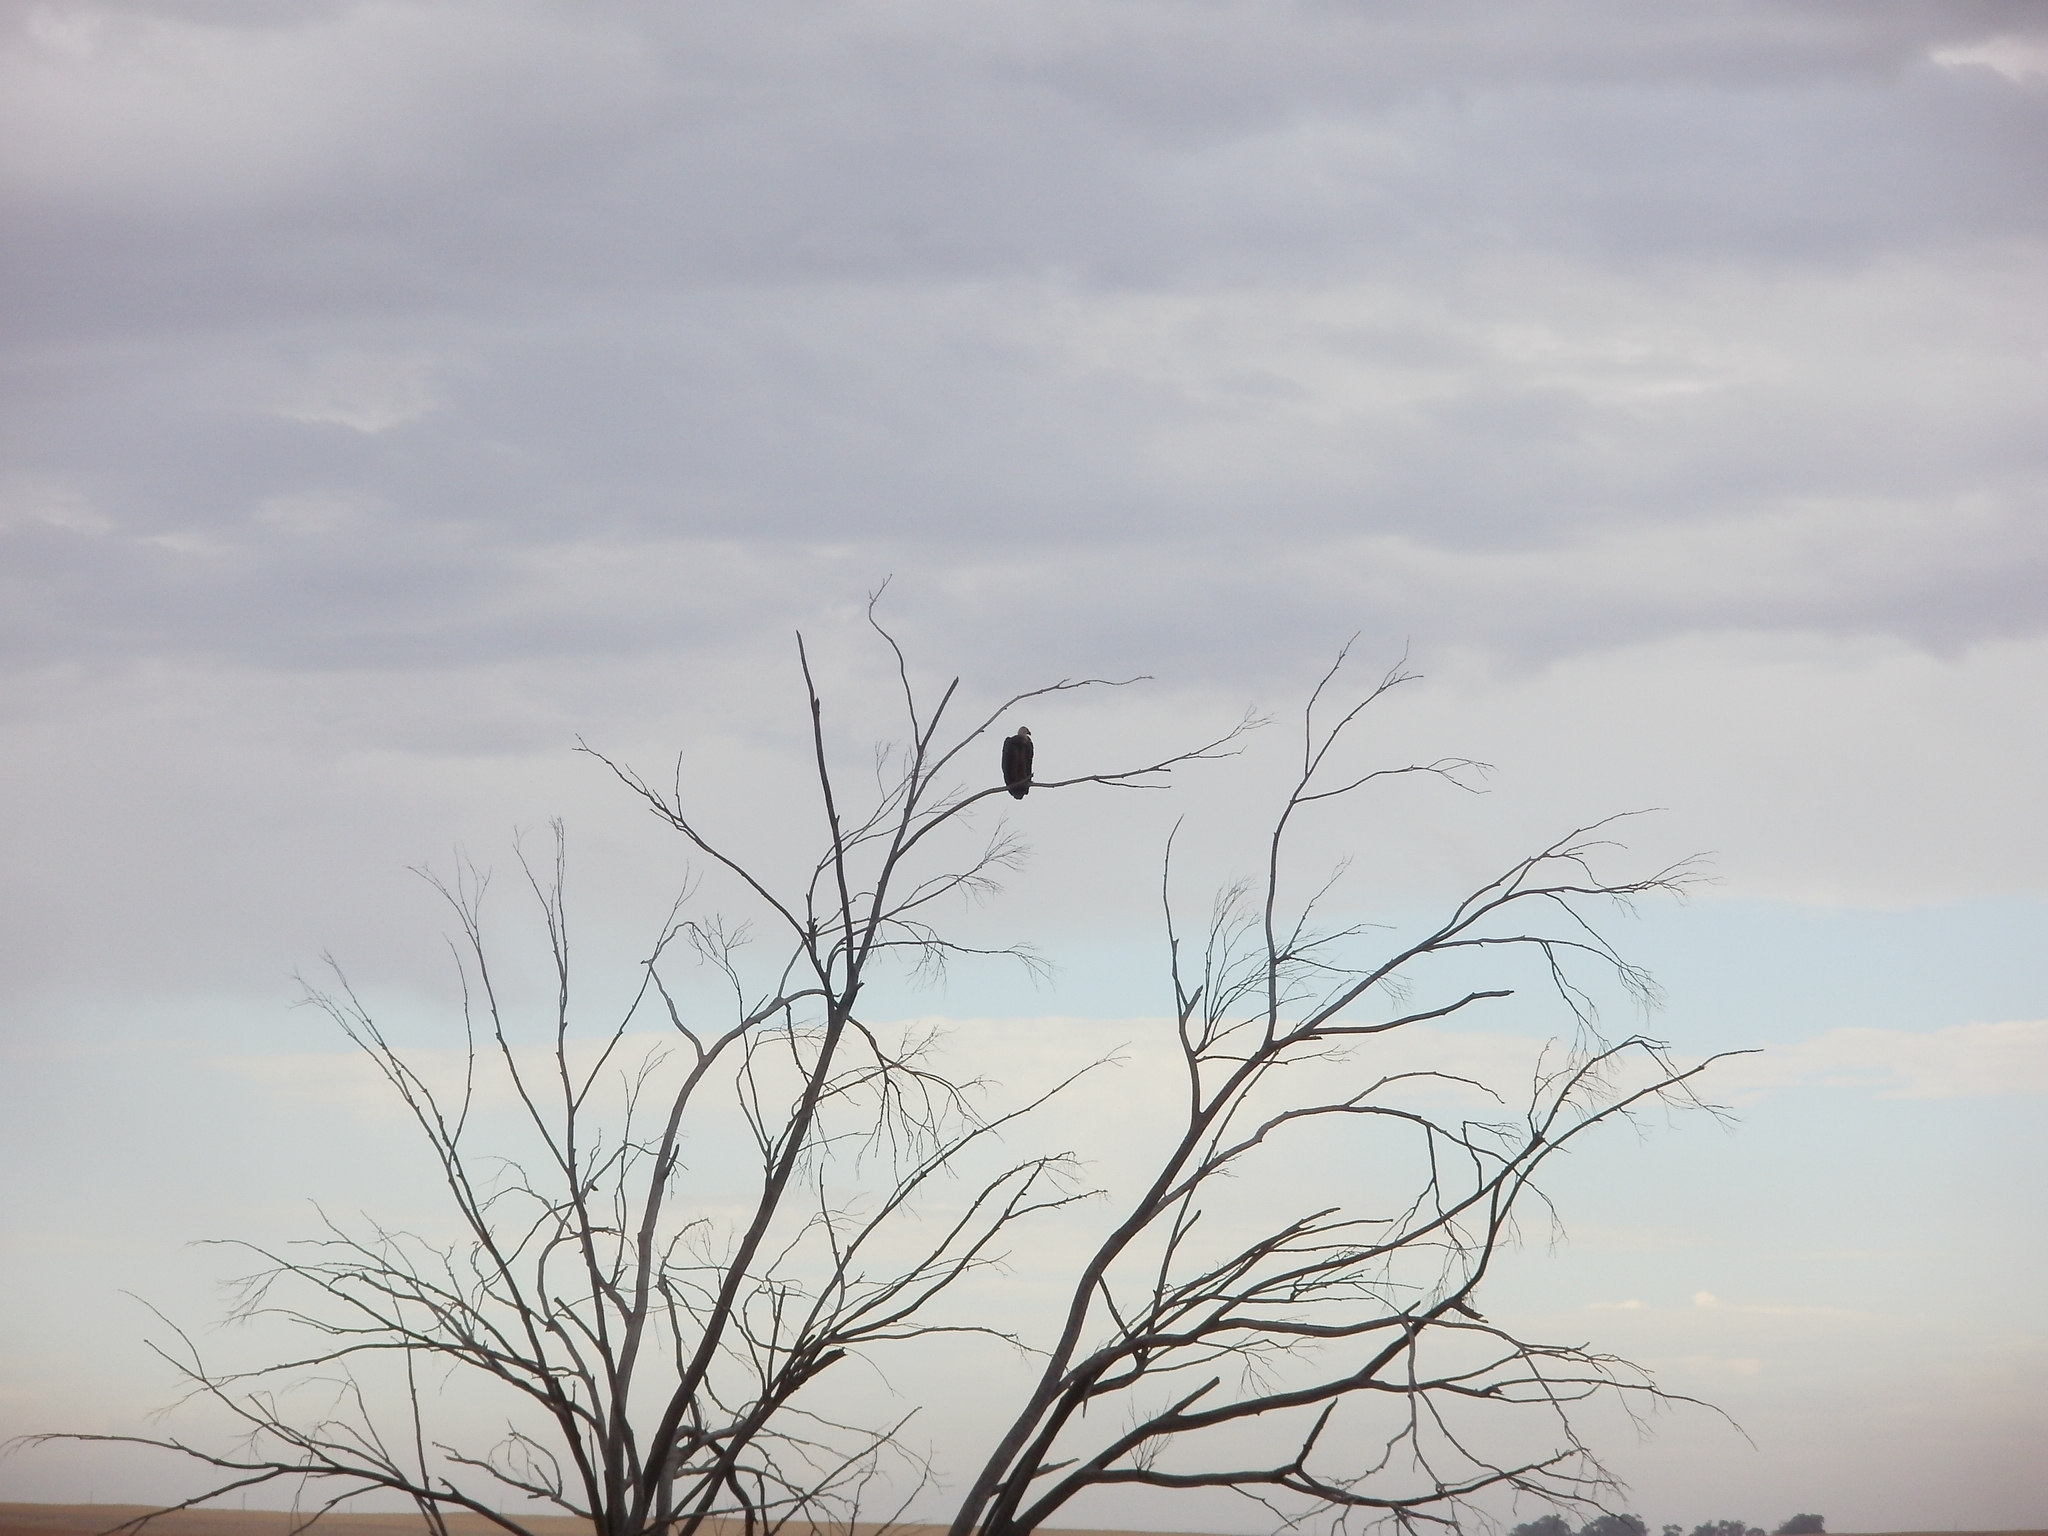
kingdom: Animalia
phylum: Chordata
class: Aves
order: Accipitriformes
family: Accipitridae
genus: Gyps
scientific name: Gyps africanus
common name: White-backed vulture
